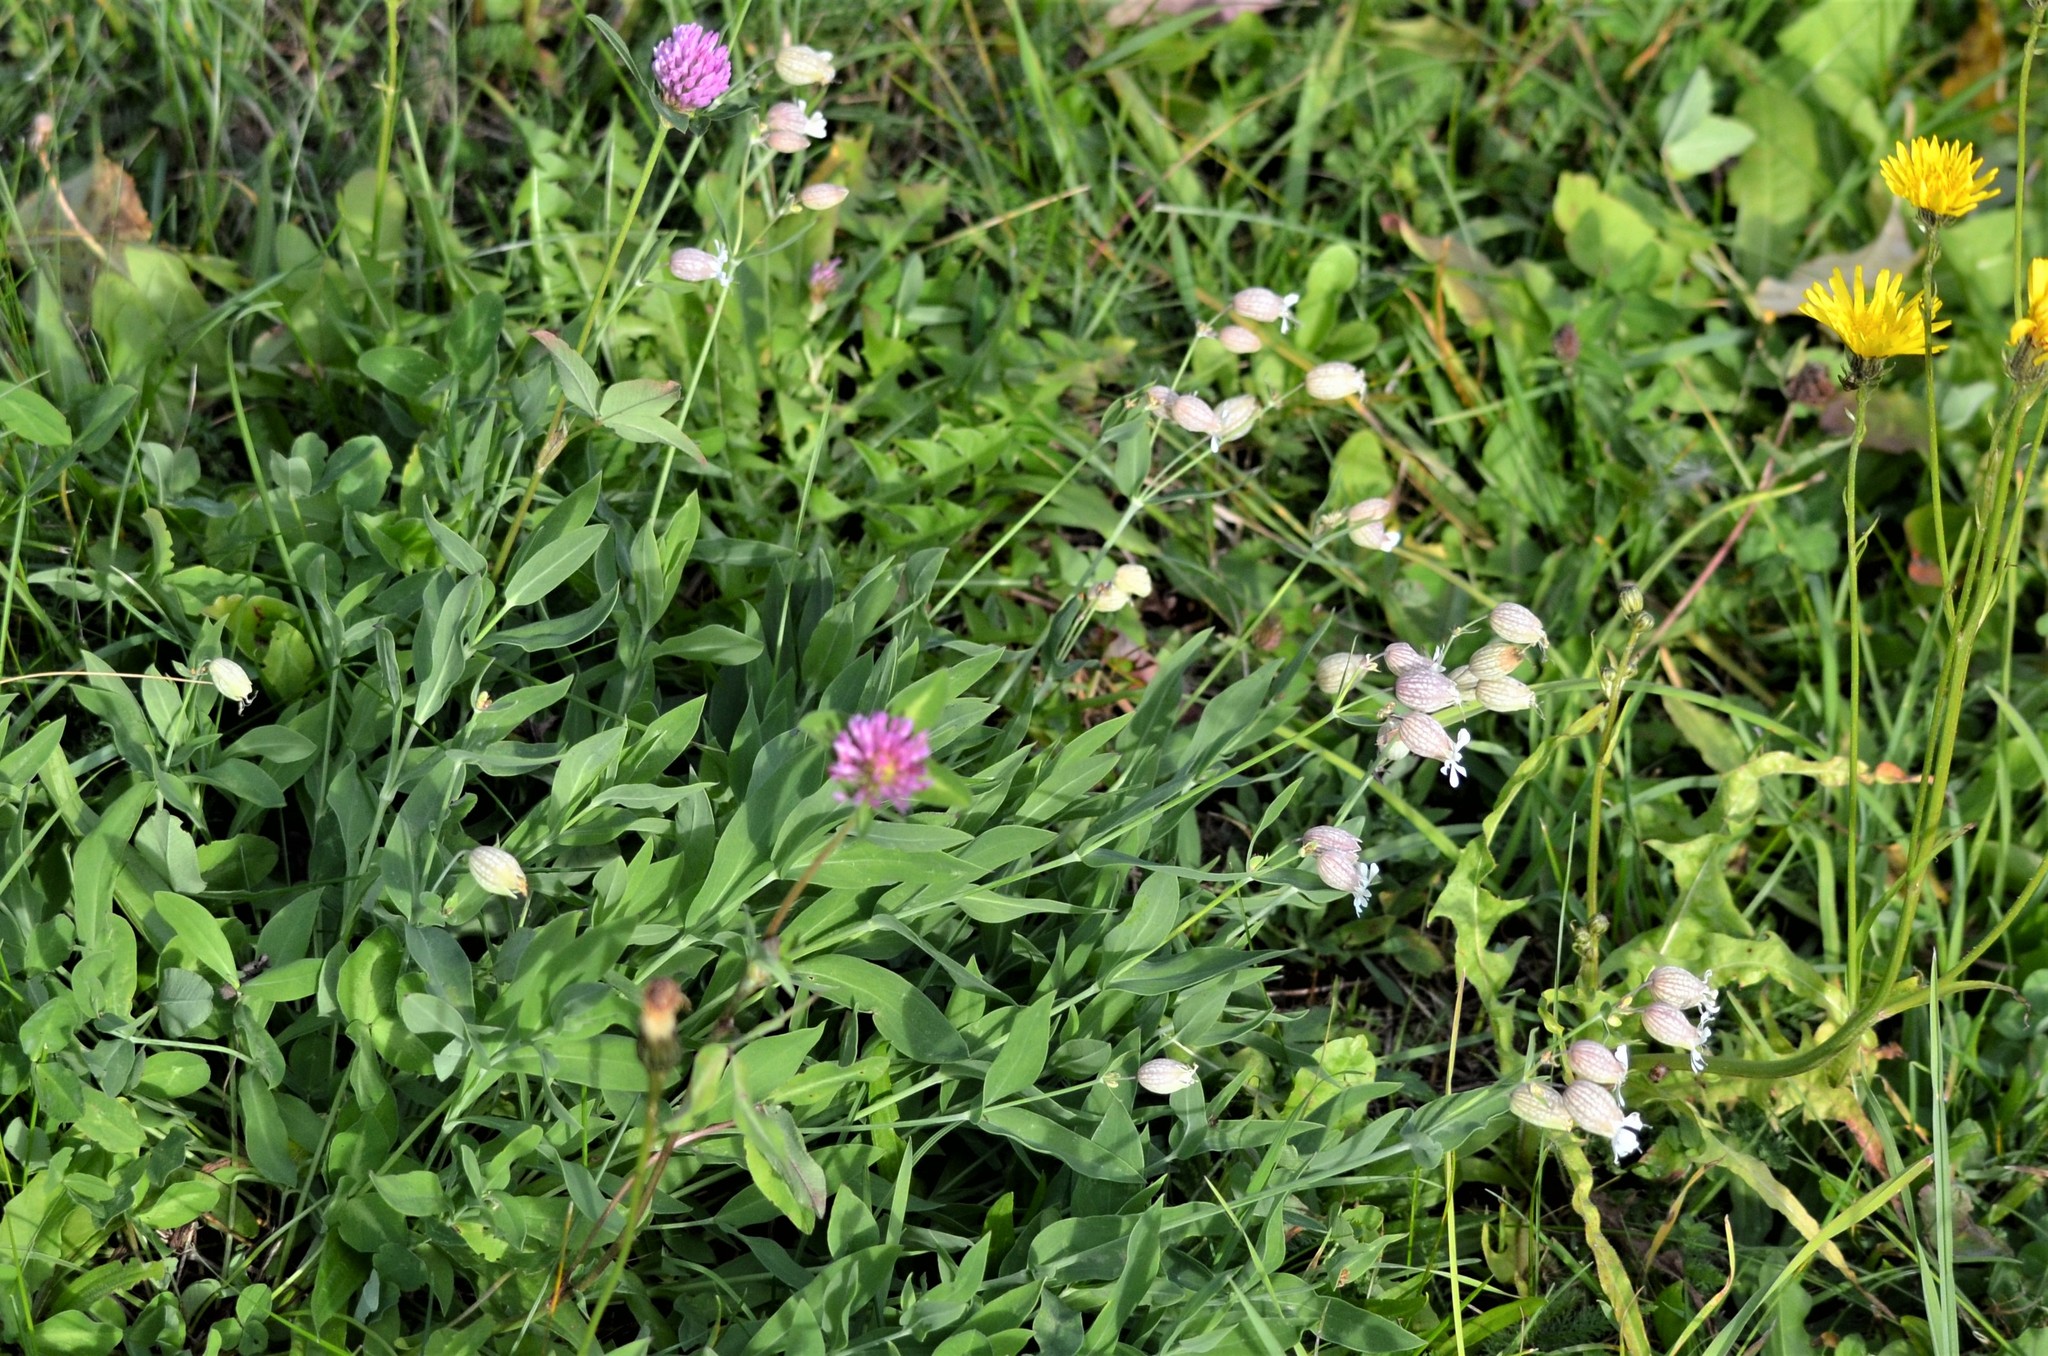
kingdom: Plantae
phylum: Tracheophyta
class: Magnoliopsida
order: Caryophyllales
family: Caryophyllaceae
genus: Silene
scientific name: Silene vulgaris
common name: Bladder campion
